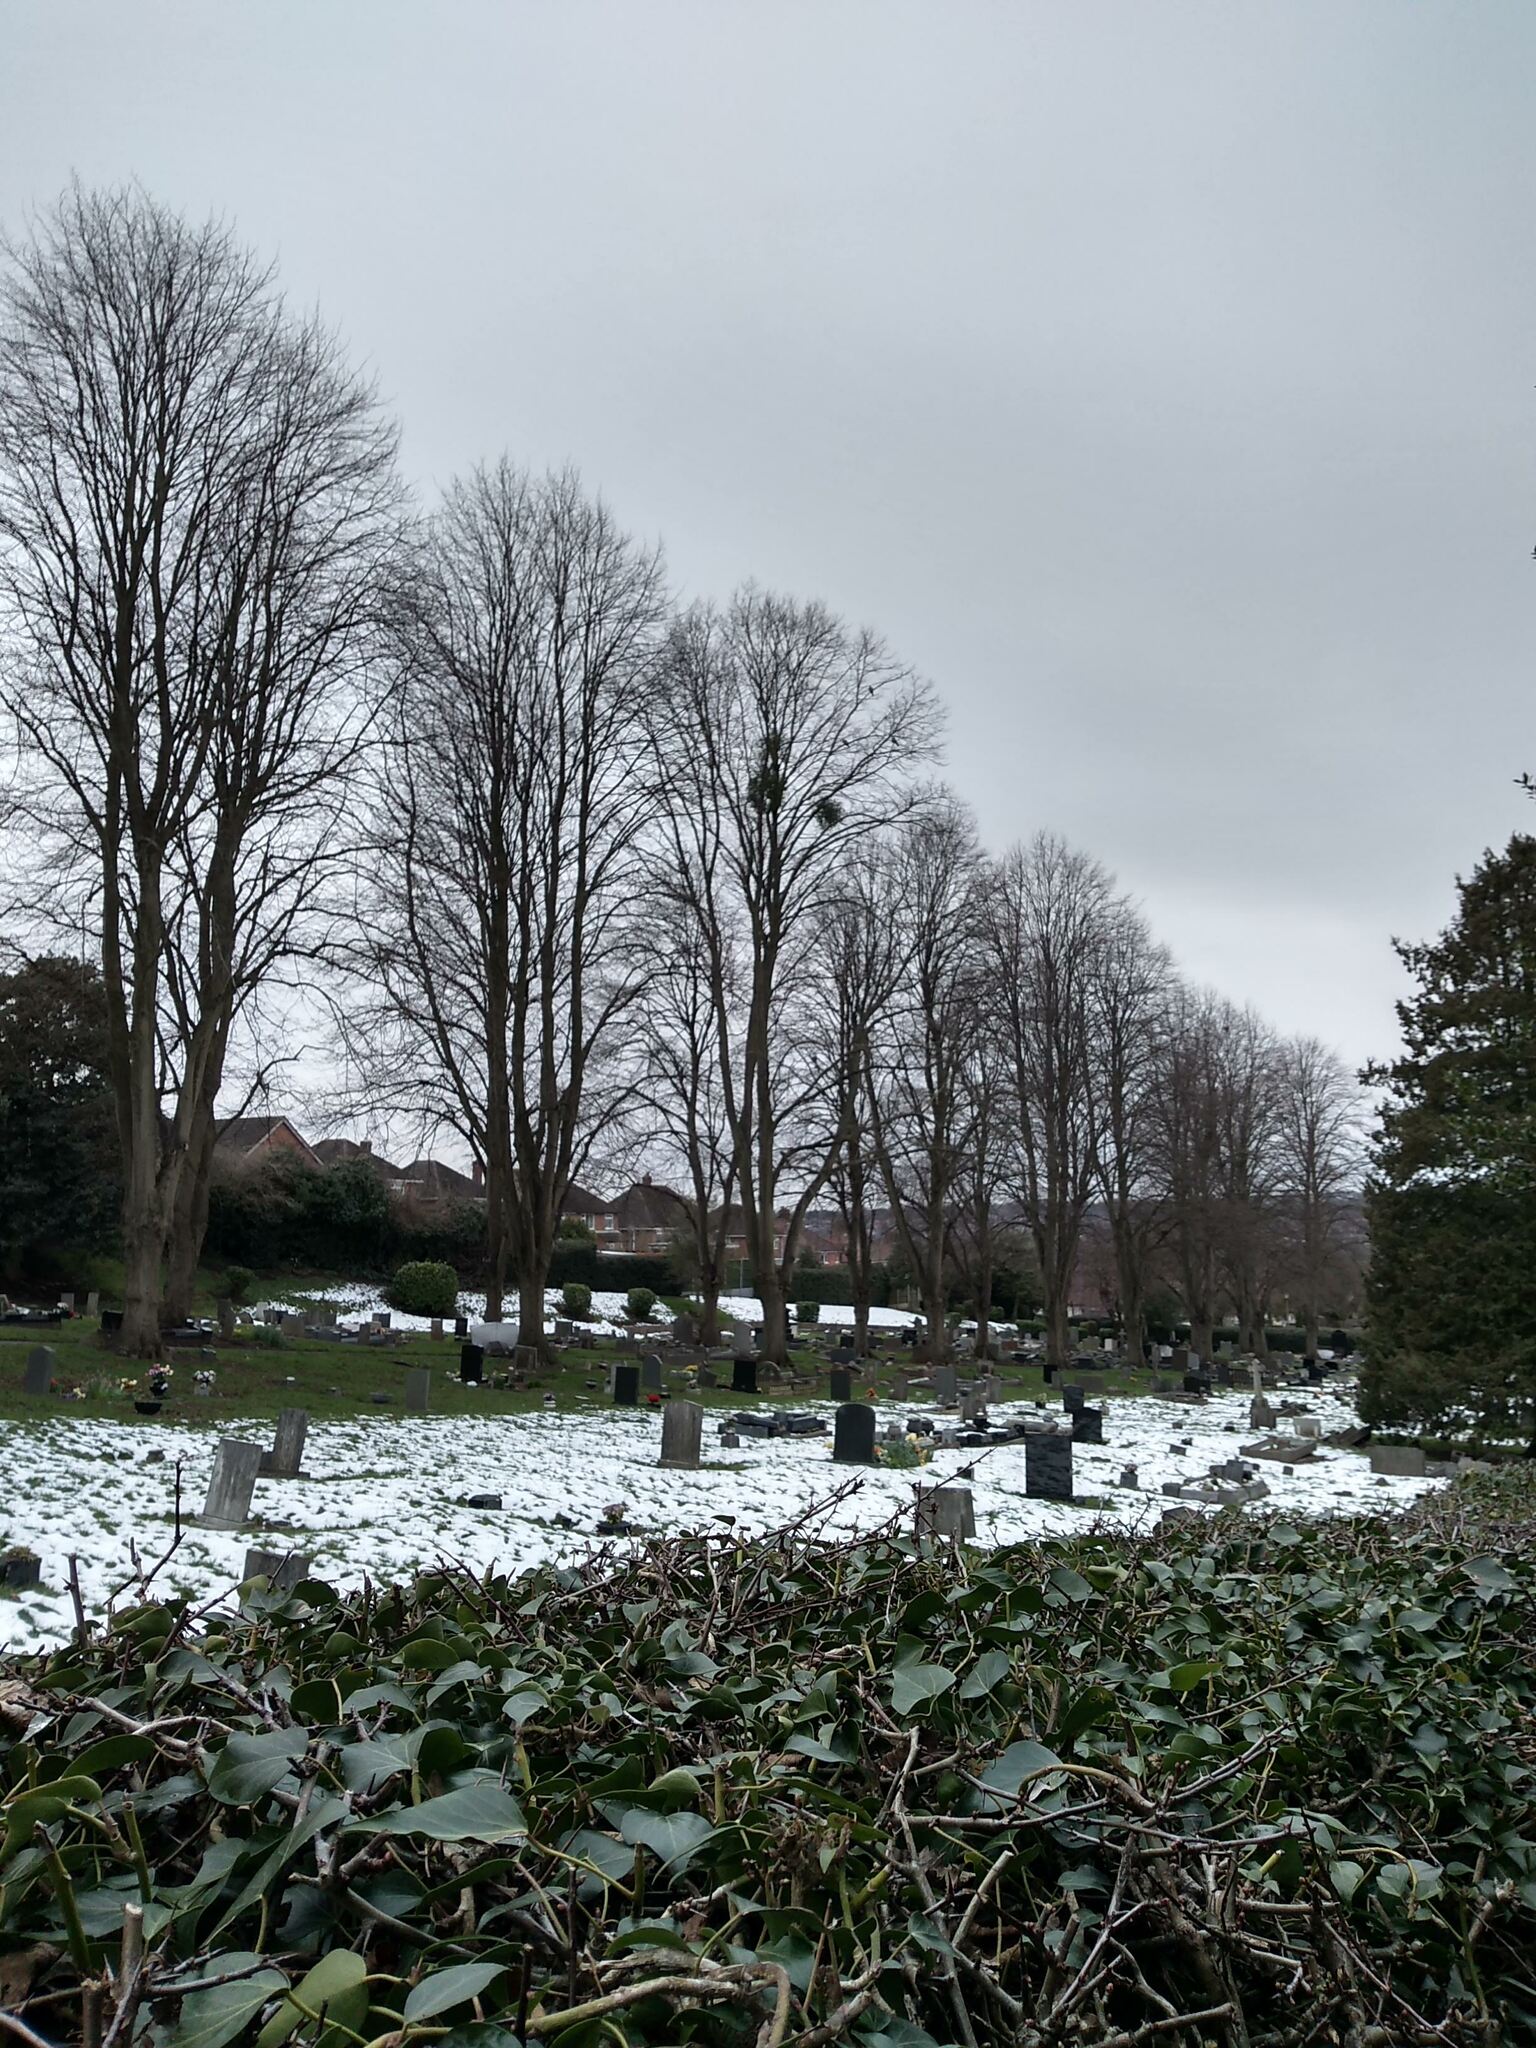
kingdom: Plantae
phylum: Tracheophyta
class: Magnoliopsida
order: Santalales
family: Viscaceae
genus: Viscum
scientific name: Viscum album
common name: Mistletoe
